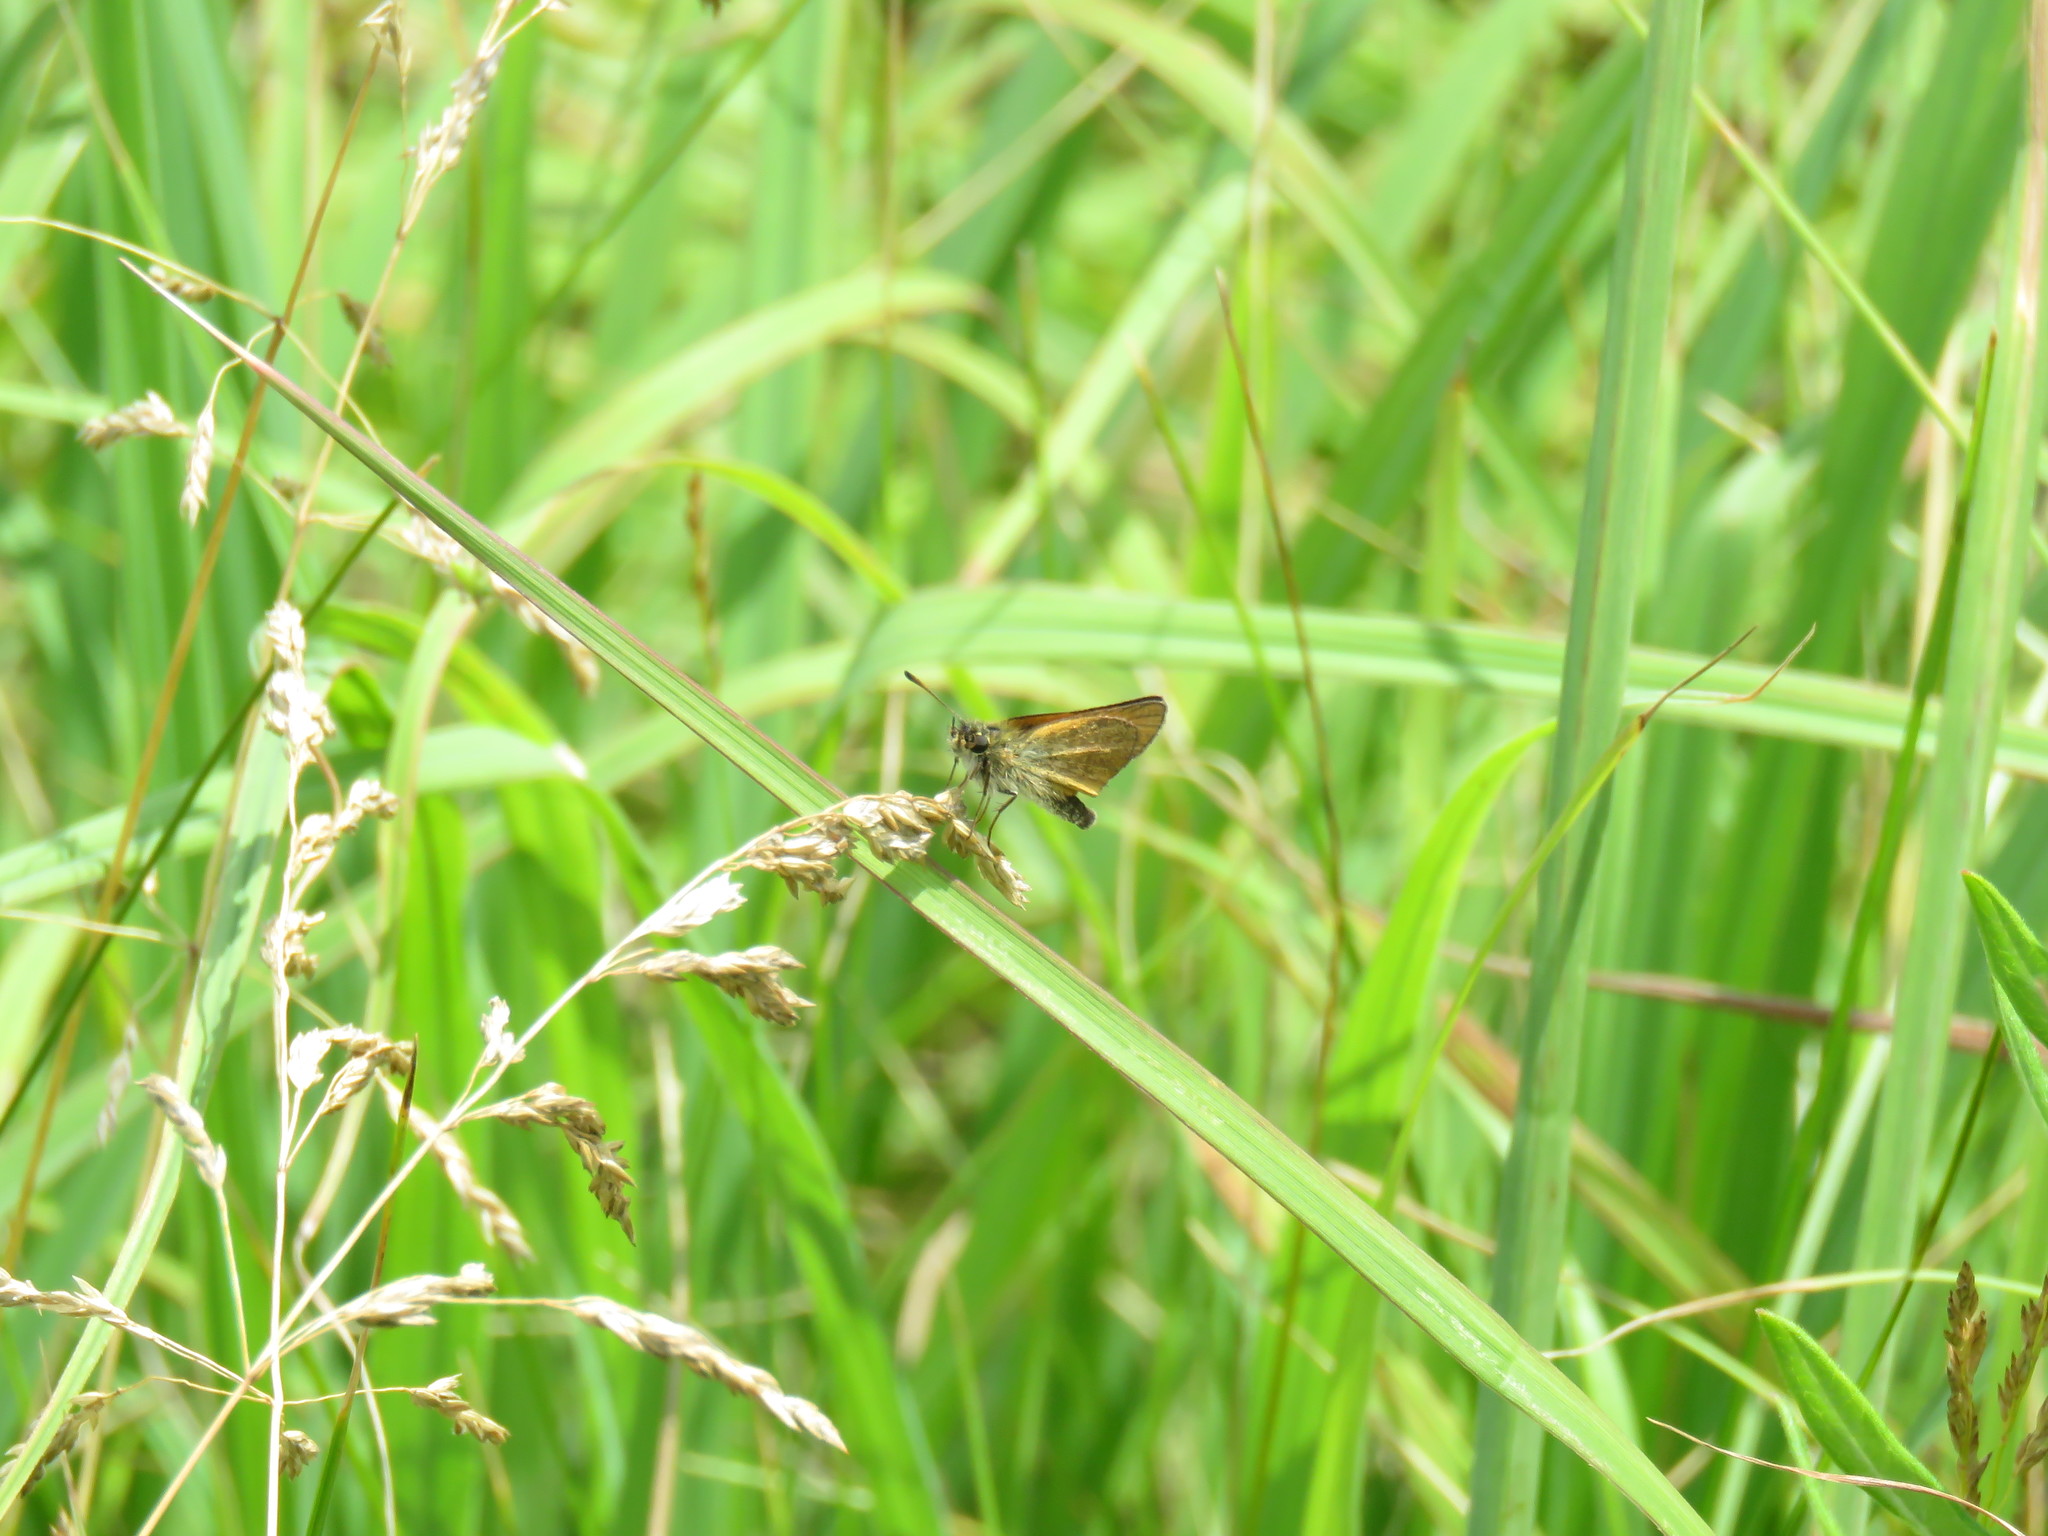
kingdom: Animalia
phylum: Arthropoda
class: Insecta
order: Lepidoptera
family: Hesperiidae
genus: Thymelicus
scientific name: Thymelicus lineola
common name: Essex skipper
